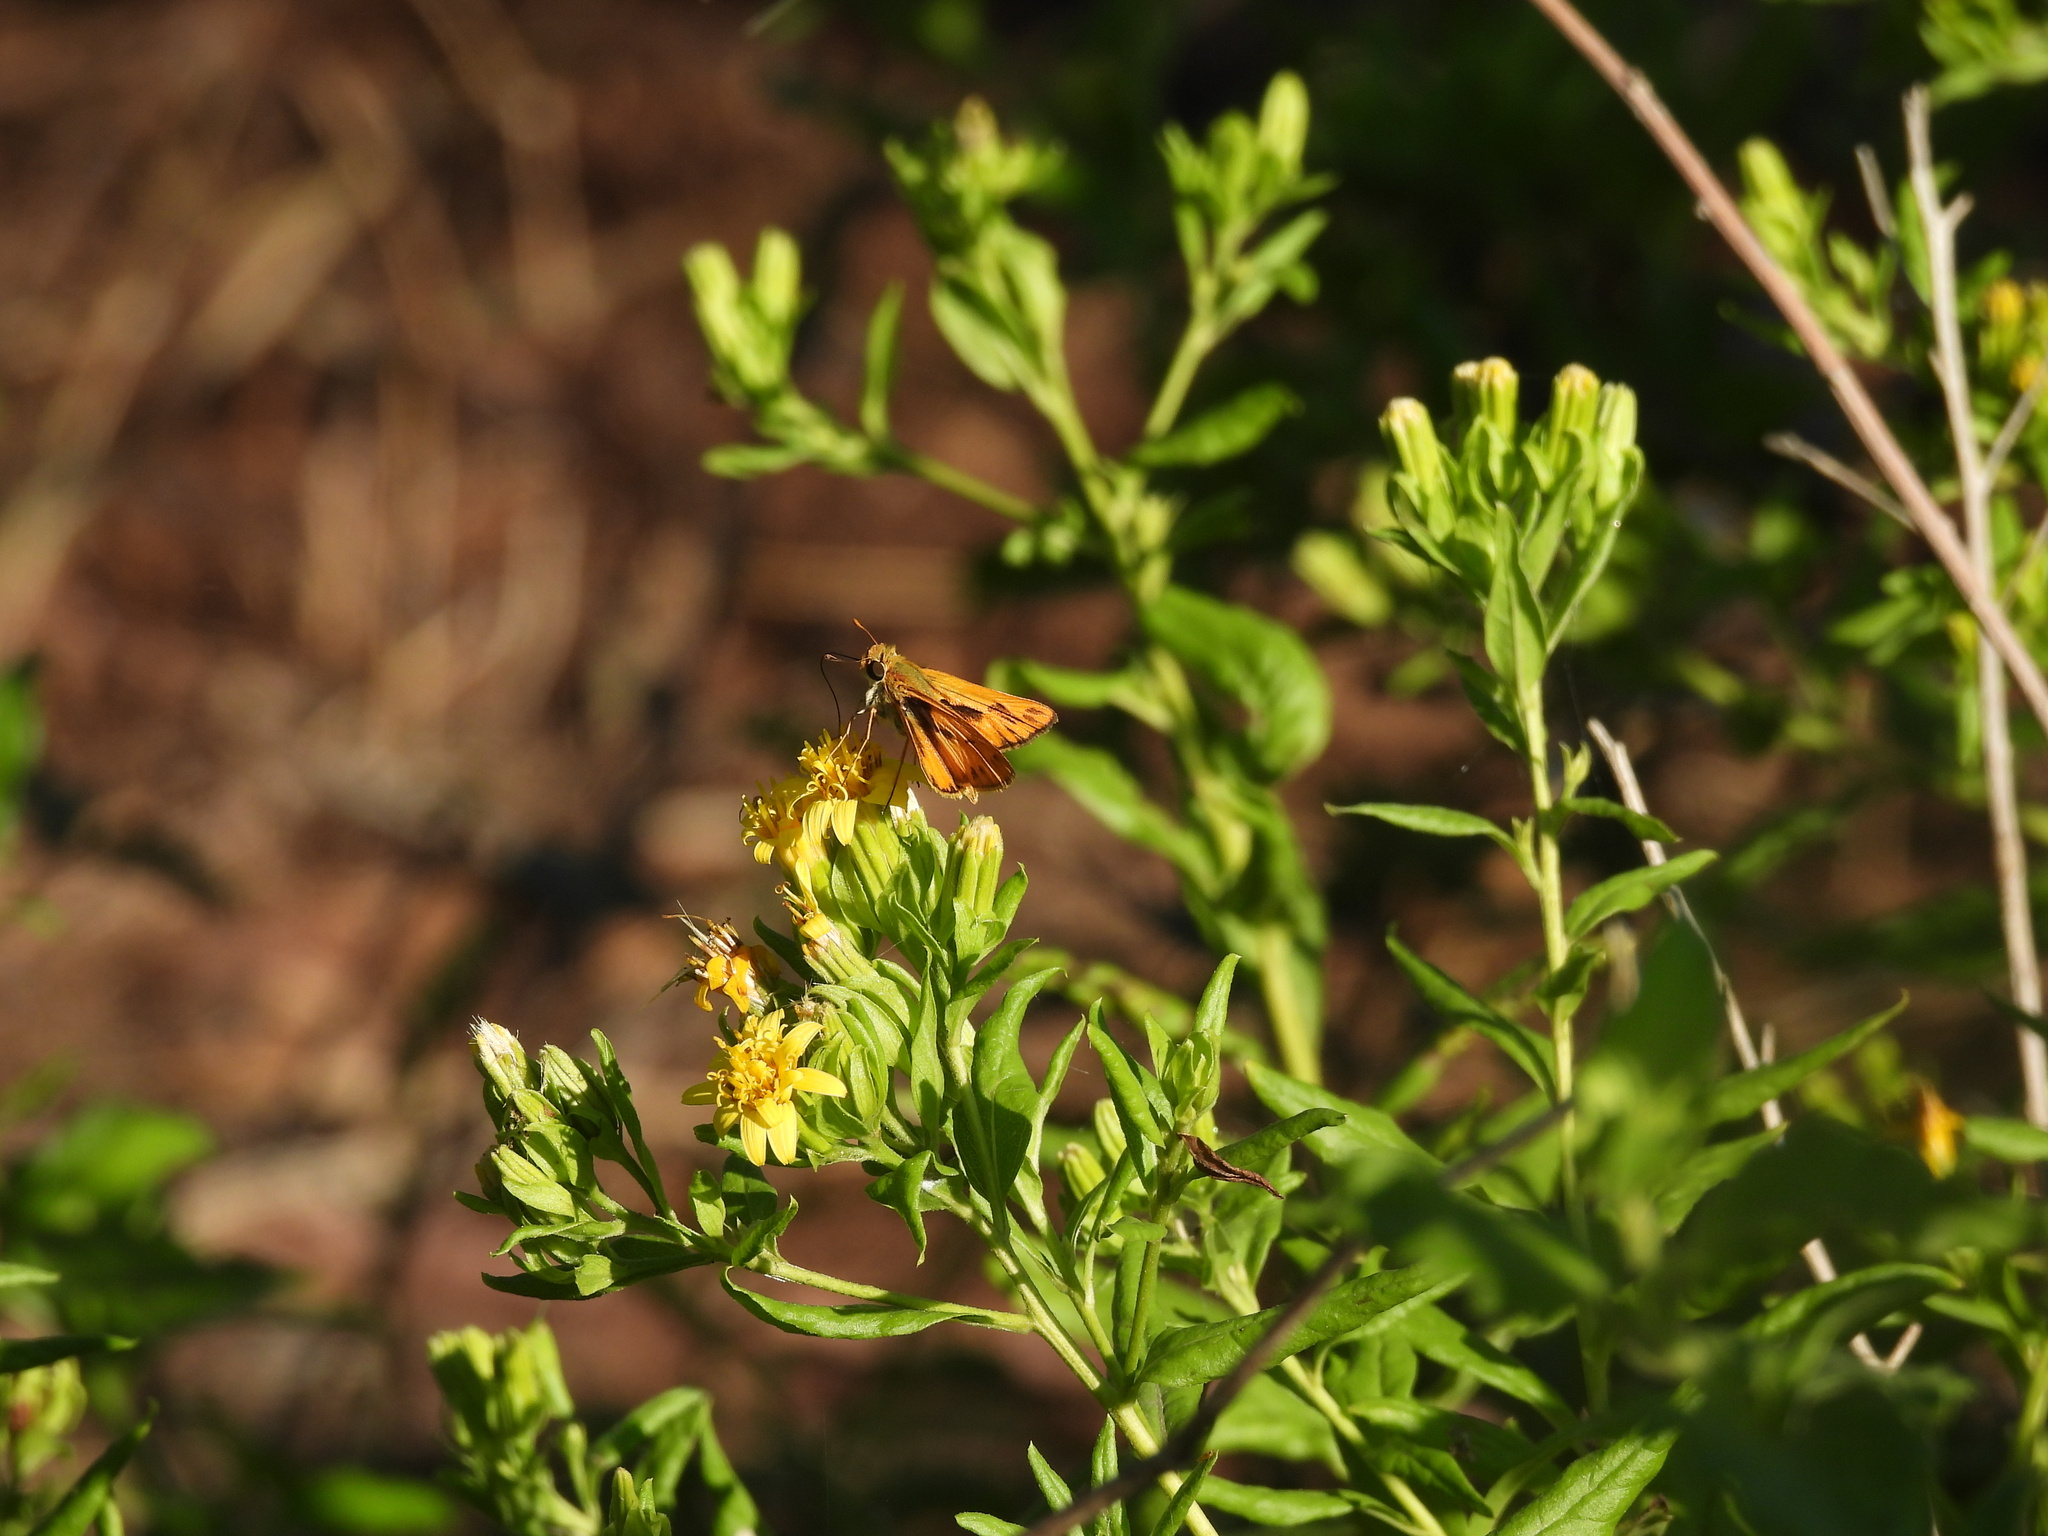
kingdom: Animalia
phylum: Arthropoda
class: Insecta
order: Lepidoptera
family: Hesperiidae
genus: Hylephila
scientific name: Hylephila phyleus
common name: Fiery skipper
